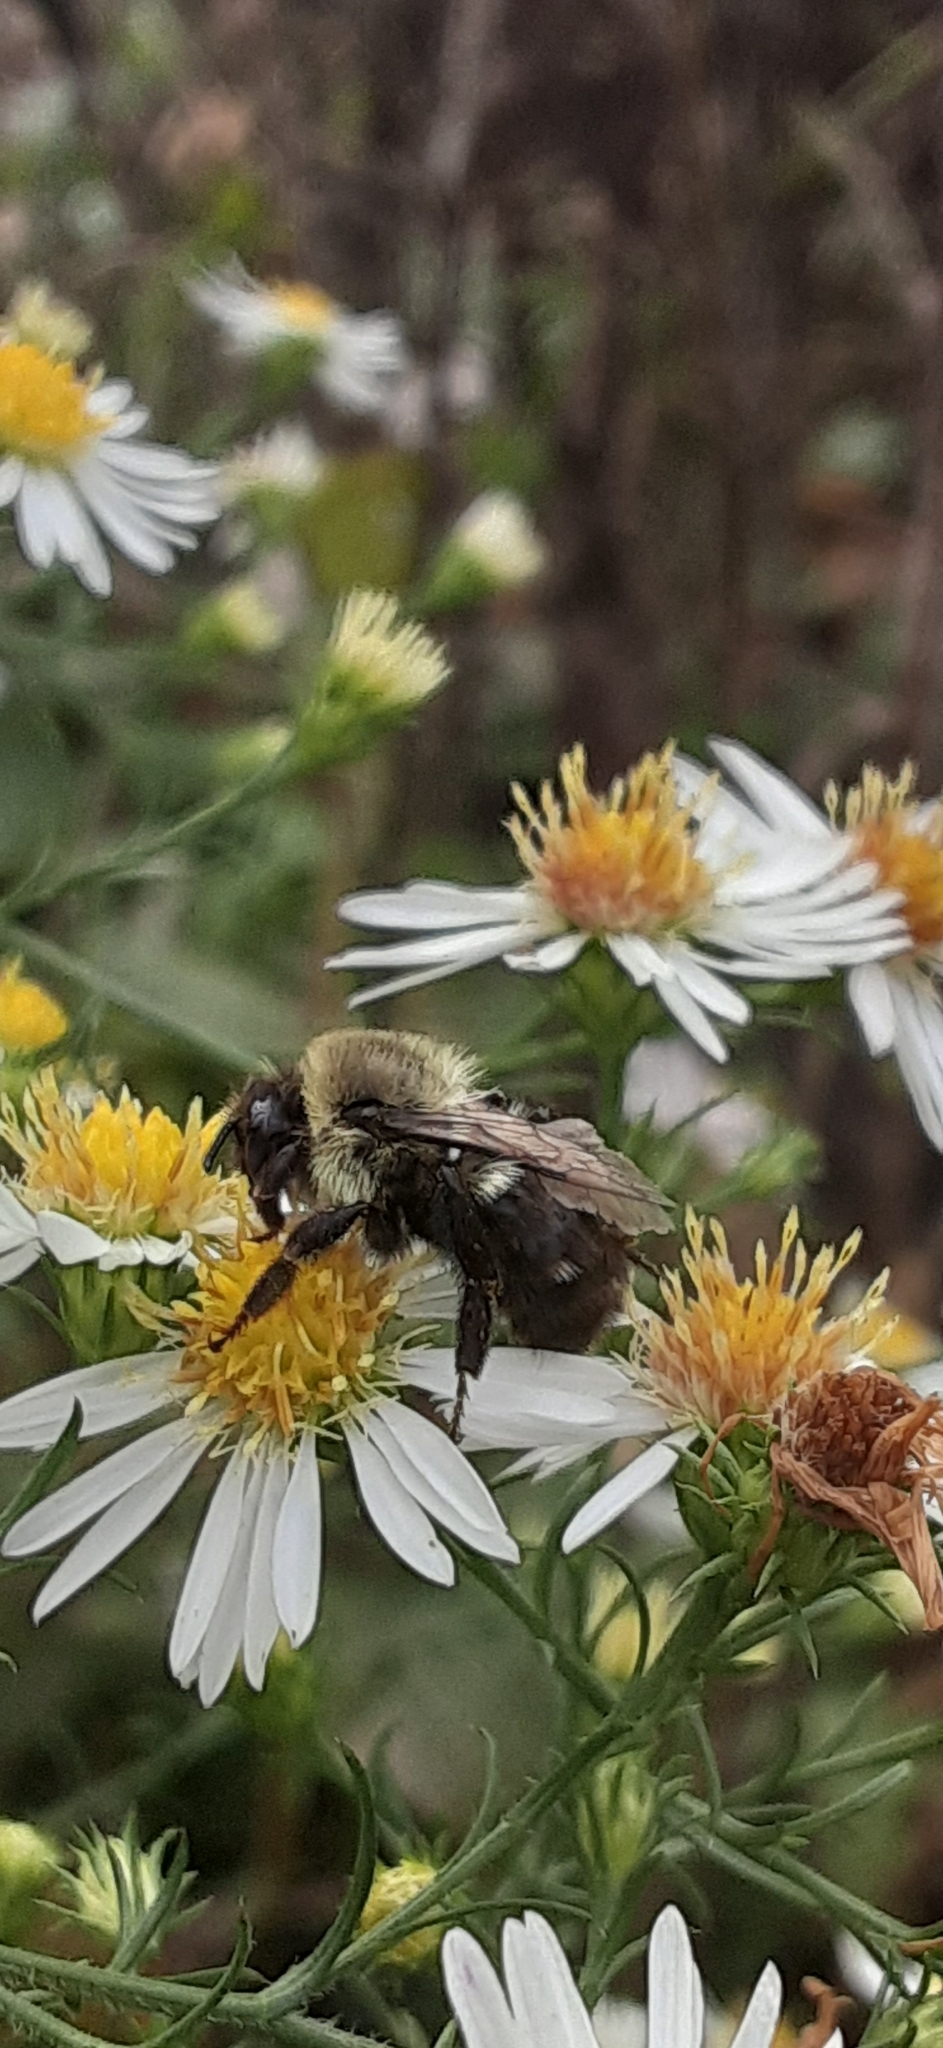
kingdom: Animalia
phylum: Arthropoda
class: Insecta
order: Hymenoptera
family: Apidae
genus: Bombus
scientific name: Bombus impatiens
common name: Common eastern bumble bee
